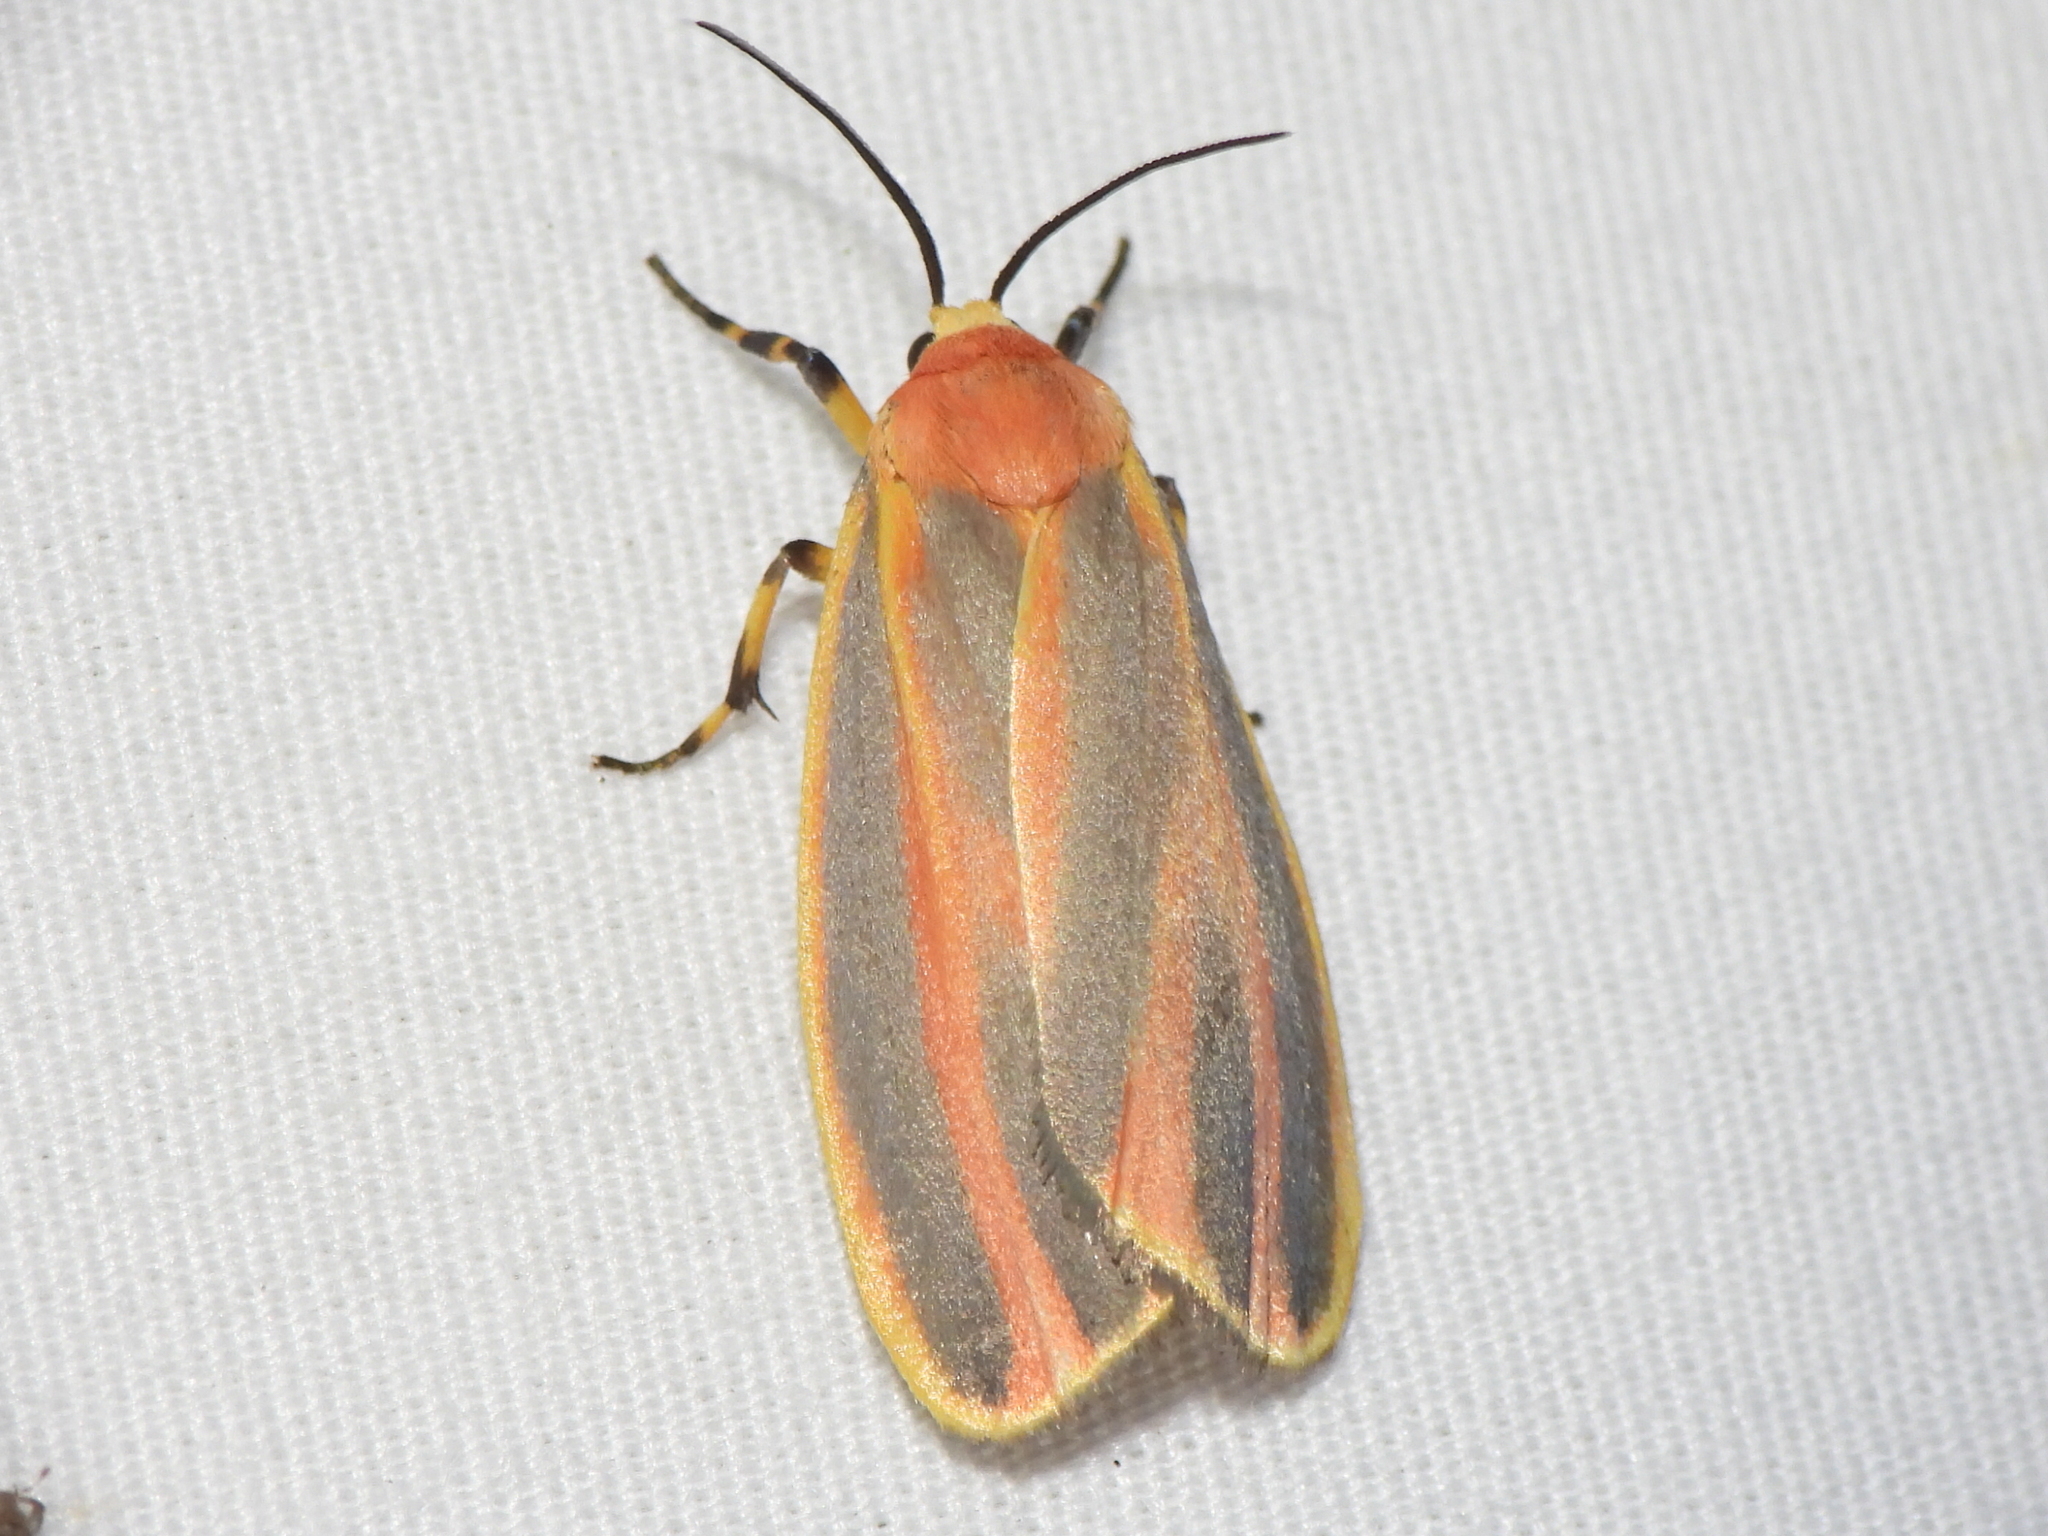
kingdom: Animalia
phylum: Arthropoda
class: Insecta
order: Lepidoptera
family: Erebidae
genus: Hypoprepia
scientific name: Hypoprepia fucosa
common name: Painted lichen moth
